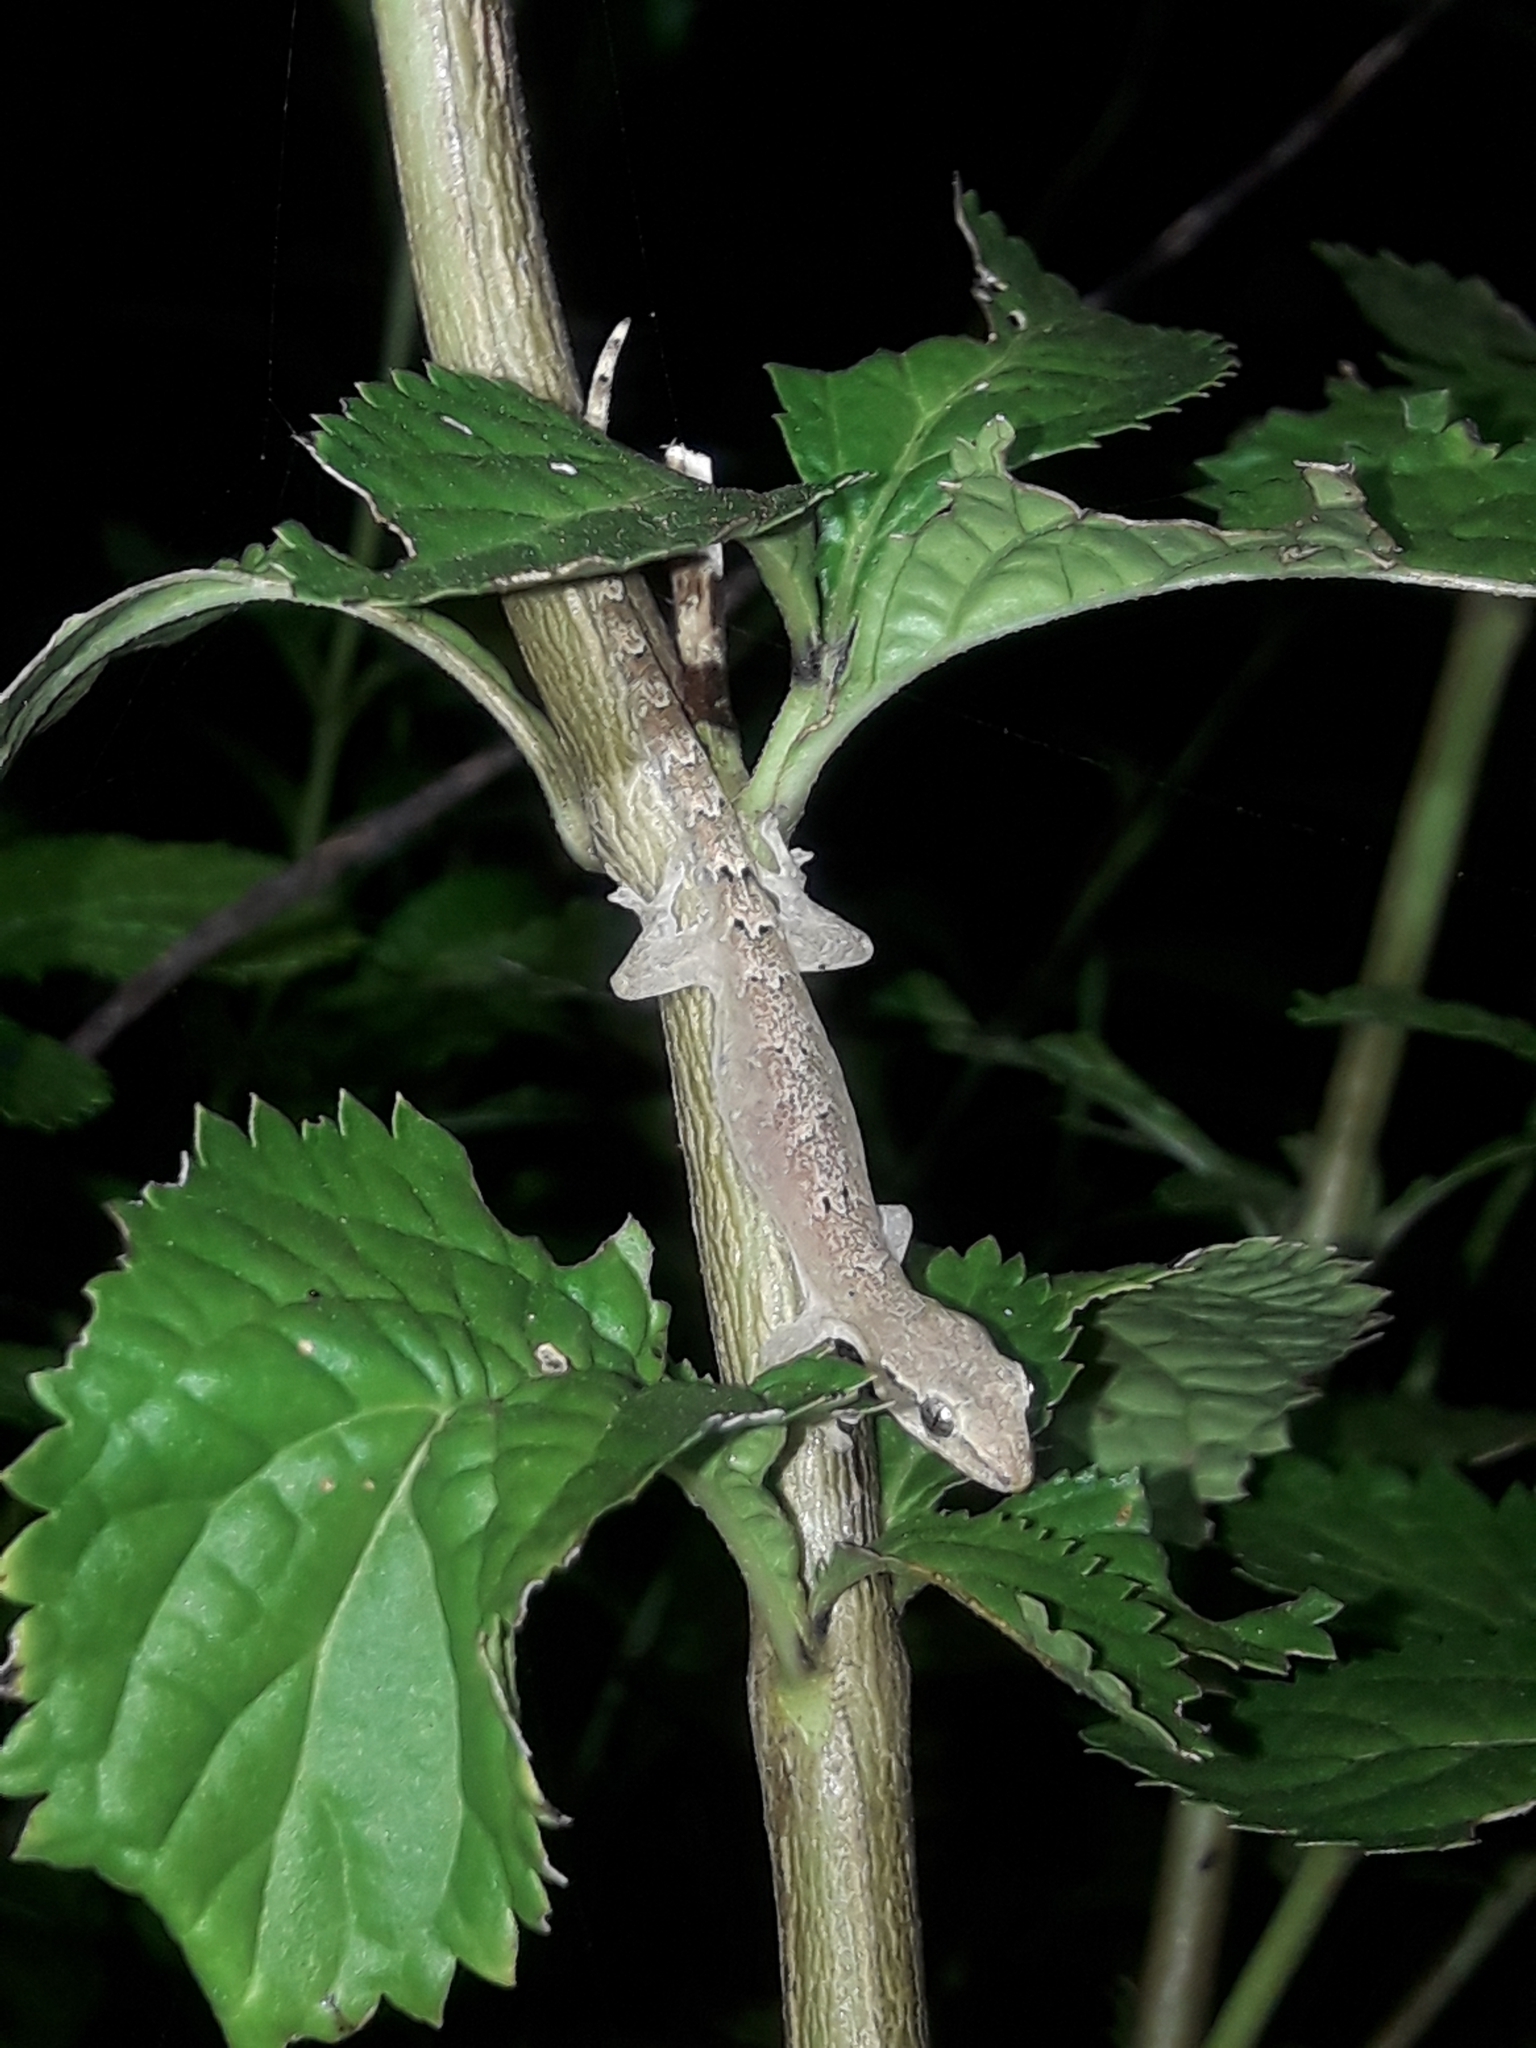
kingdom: Animalia
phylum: Chordata
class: Squamata
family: Gekkonidae
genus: Lepidodactylus
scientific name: Lepidodactylus lugubris
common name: Mourning gecko
